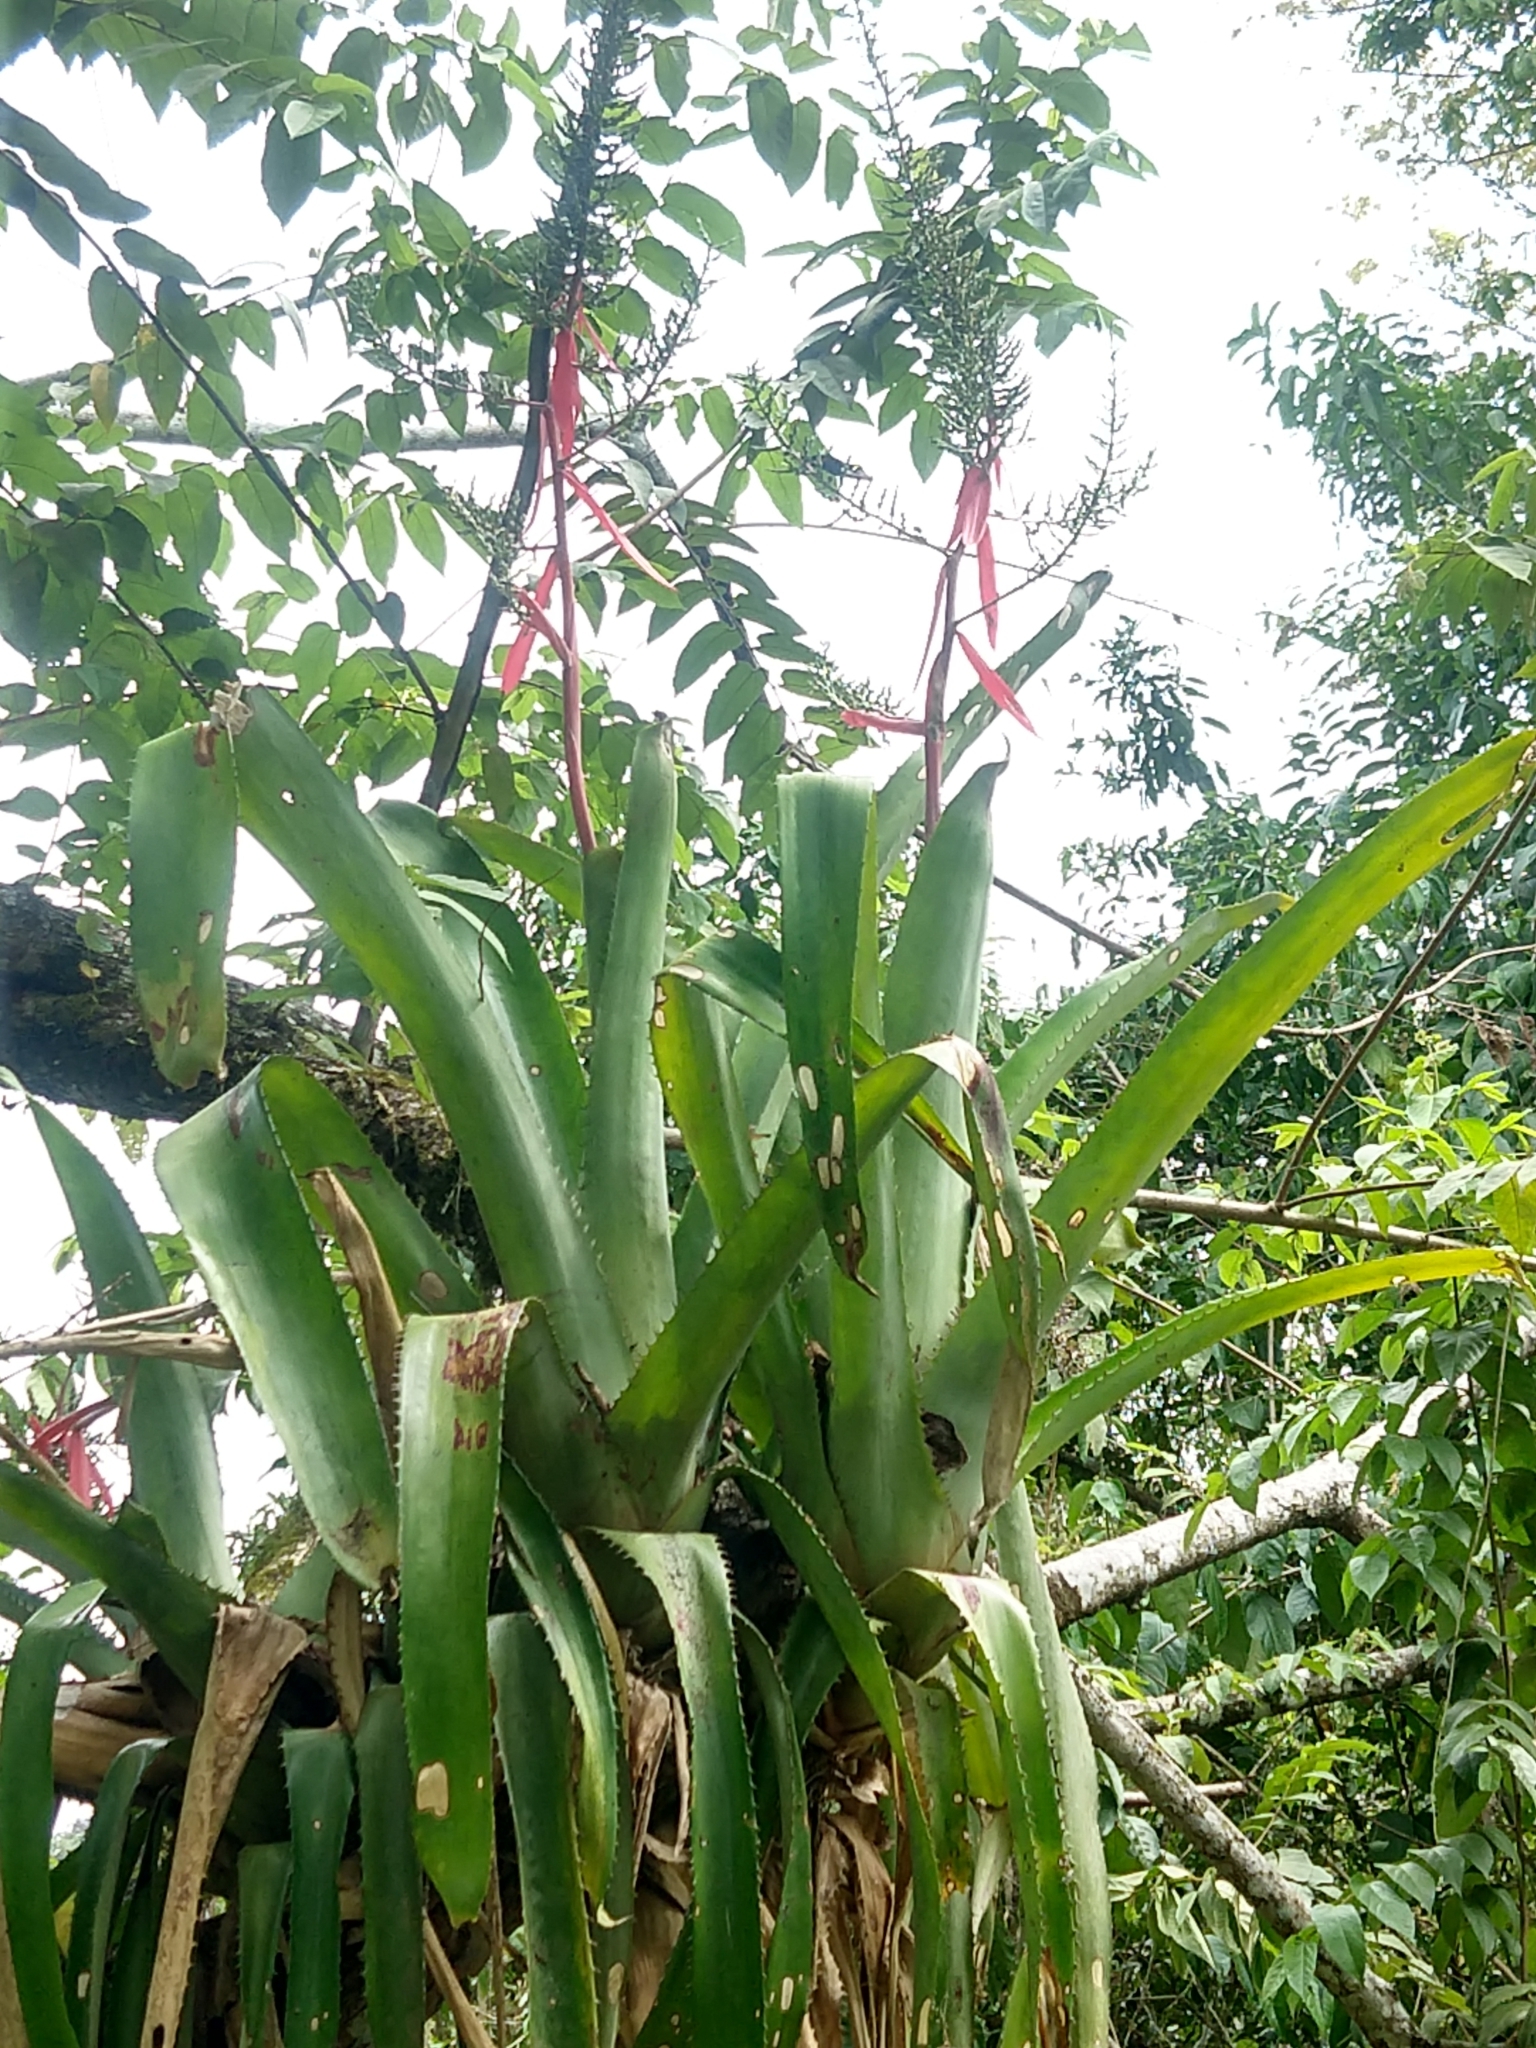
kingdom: Plantae
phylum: Tracheophyta
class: Liliopsida
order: Poales
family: Bromeliaceae
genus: Aechmea
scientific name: Aechmea bracteata
